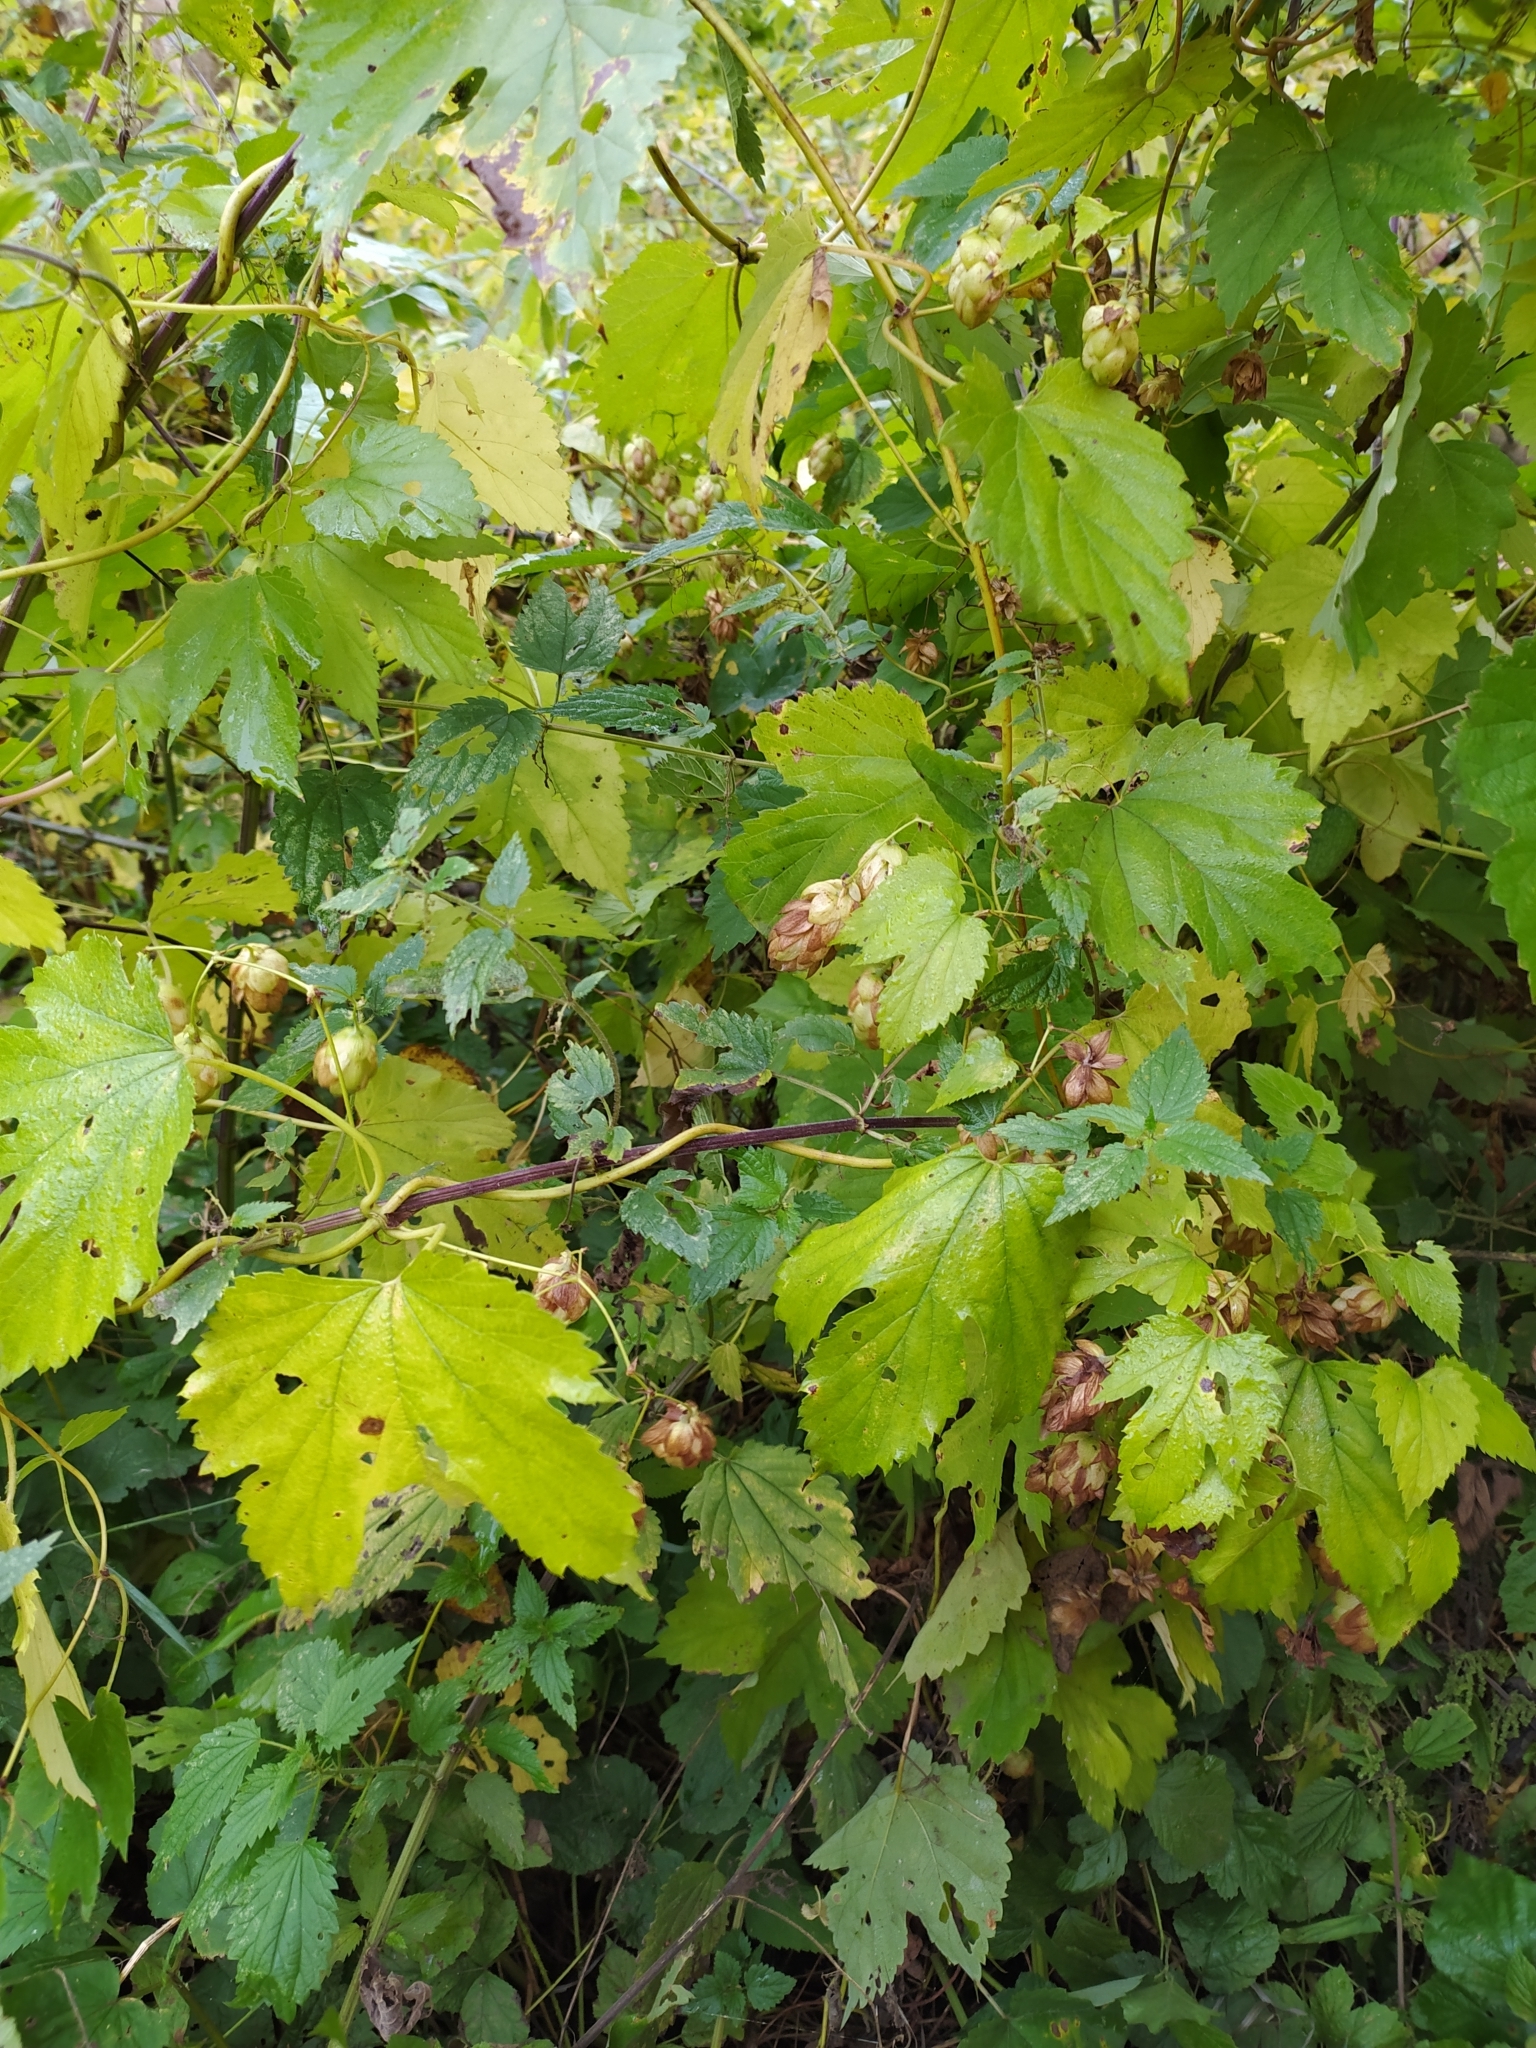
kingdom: Plantae
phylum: Tracheophyta
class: Magnoliopsida
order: Rosales
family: Cannabaceae
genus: Humulus
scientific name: Humulus lupulus
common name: Hop
